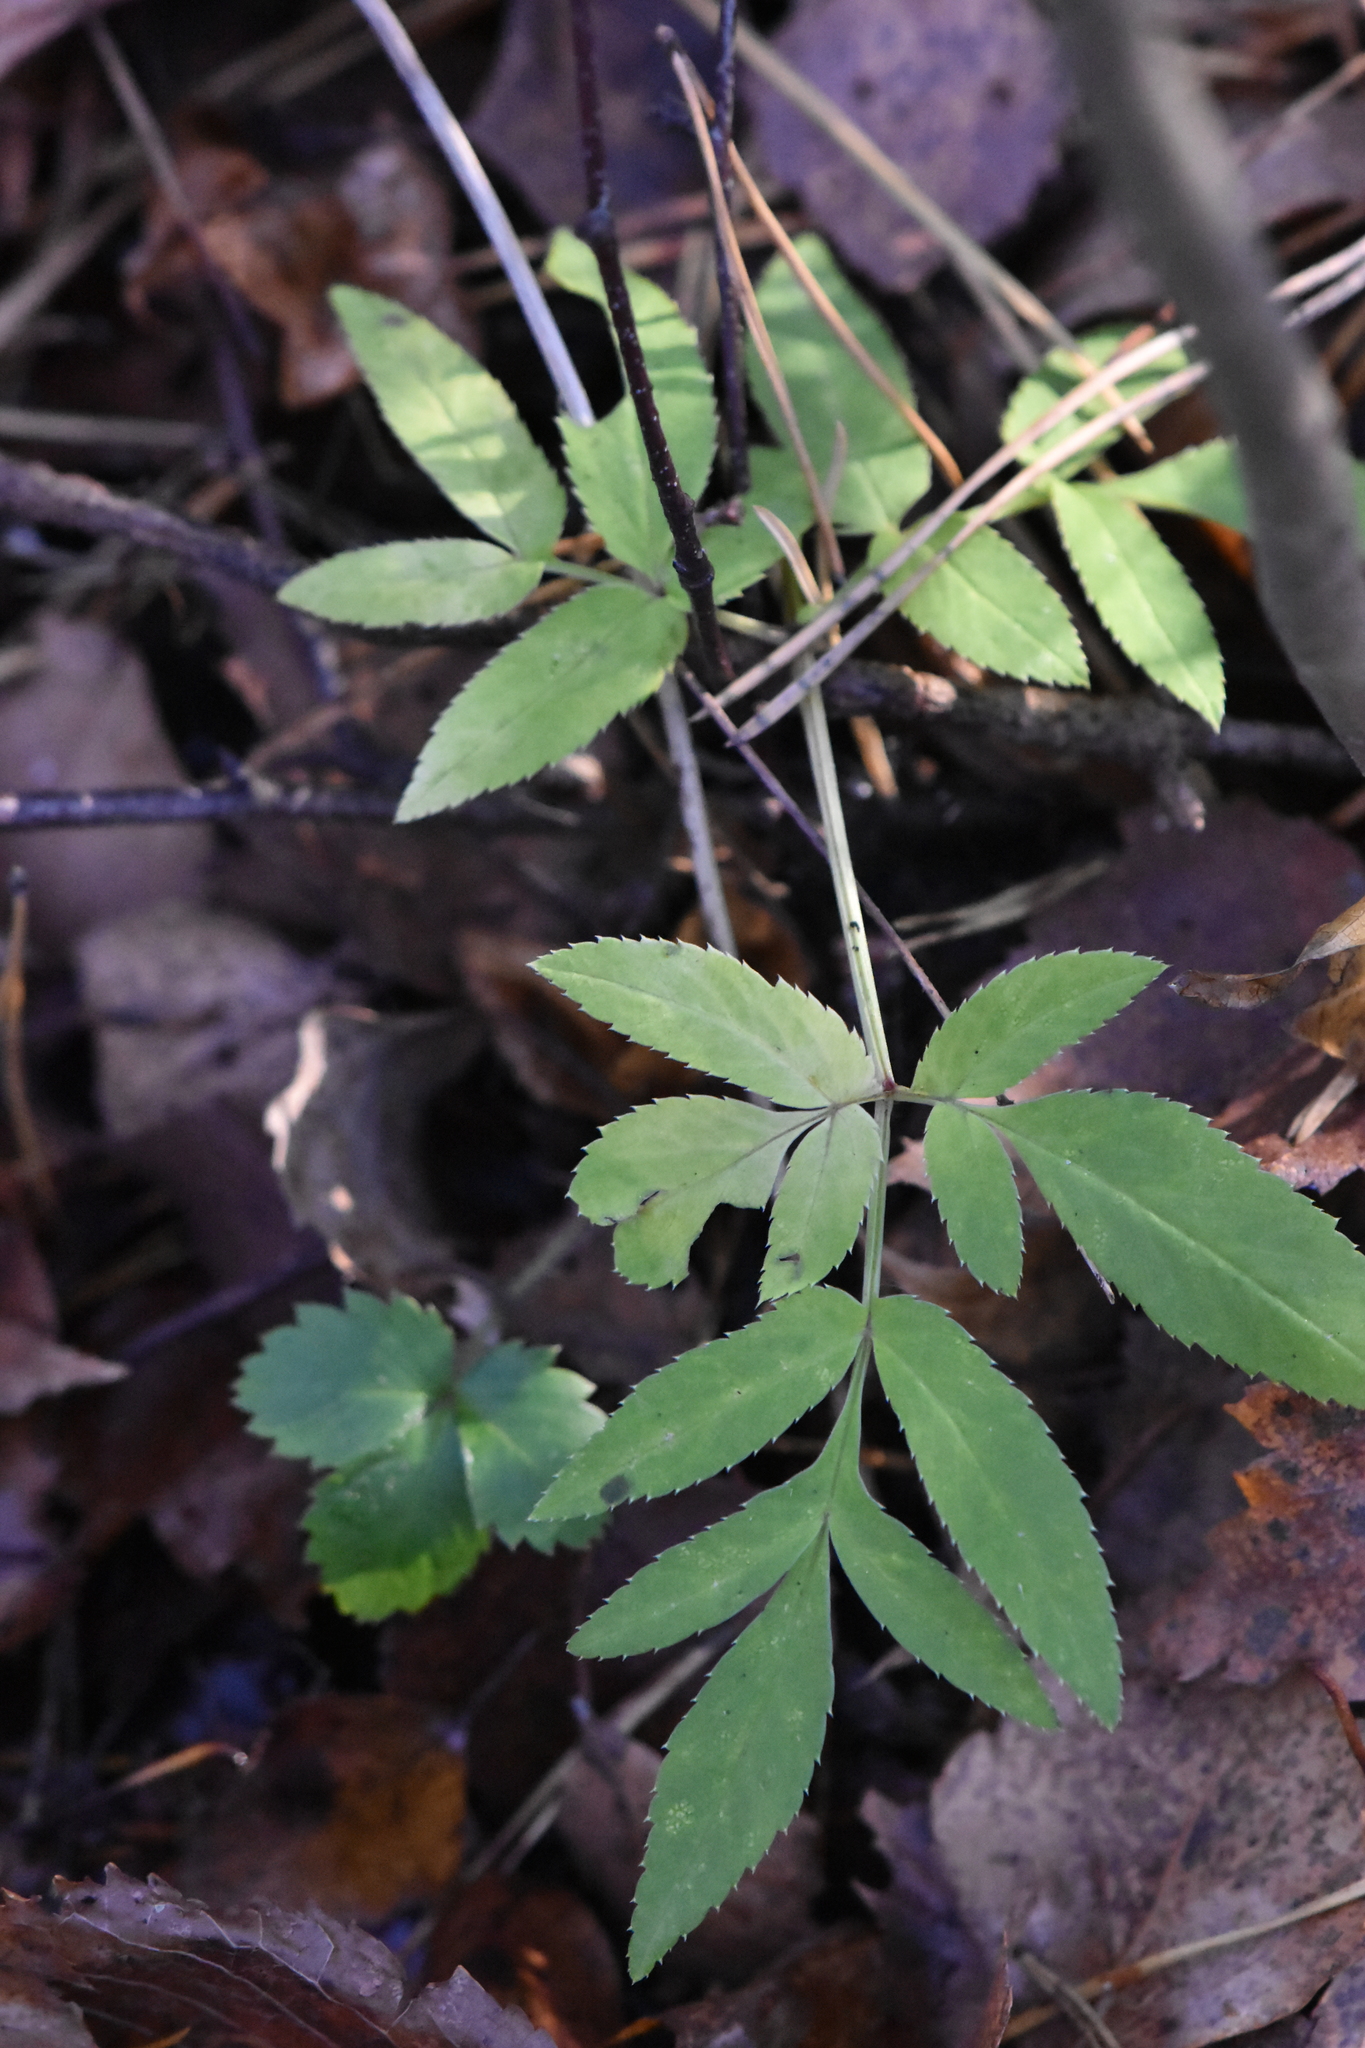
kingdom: Plantae
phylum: Tracheophyta
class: Magnoliopsida
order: Apiales
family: Apiaceae
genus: Angelica
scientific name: Angelica sylvestris
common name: Wild angelica
